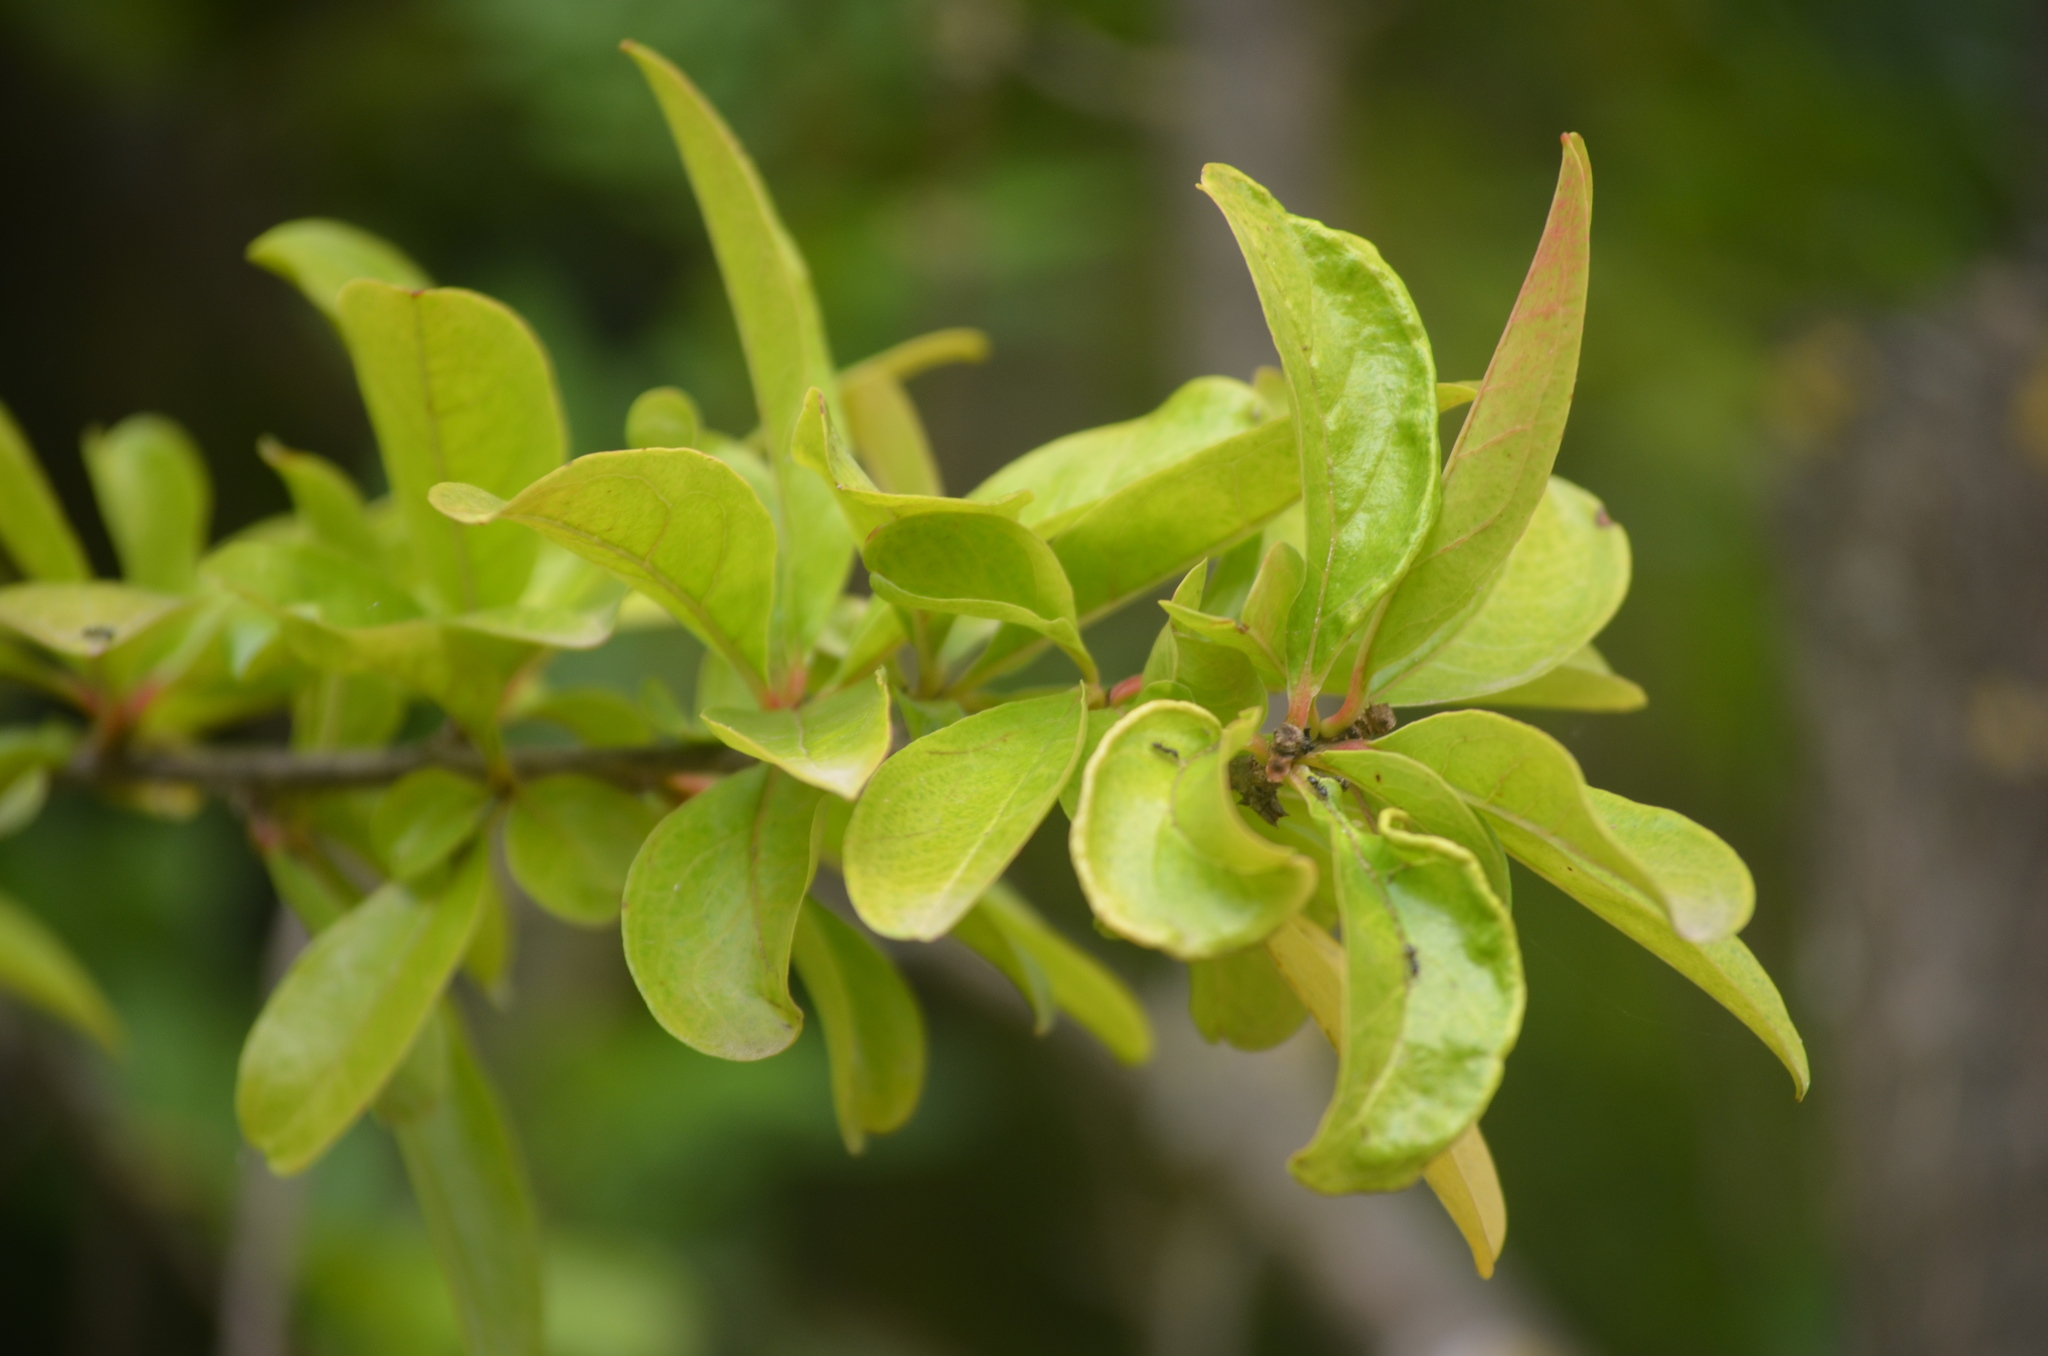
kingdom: Plantae
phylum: Tracheophyta
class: Magnoliopsida
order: Myrtales
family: Lythraceae
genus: Punica
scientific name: Punica granatum
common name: Pomegranate
